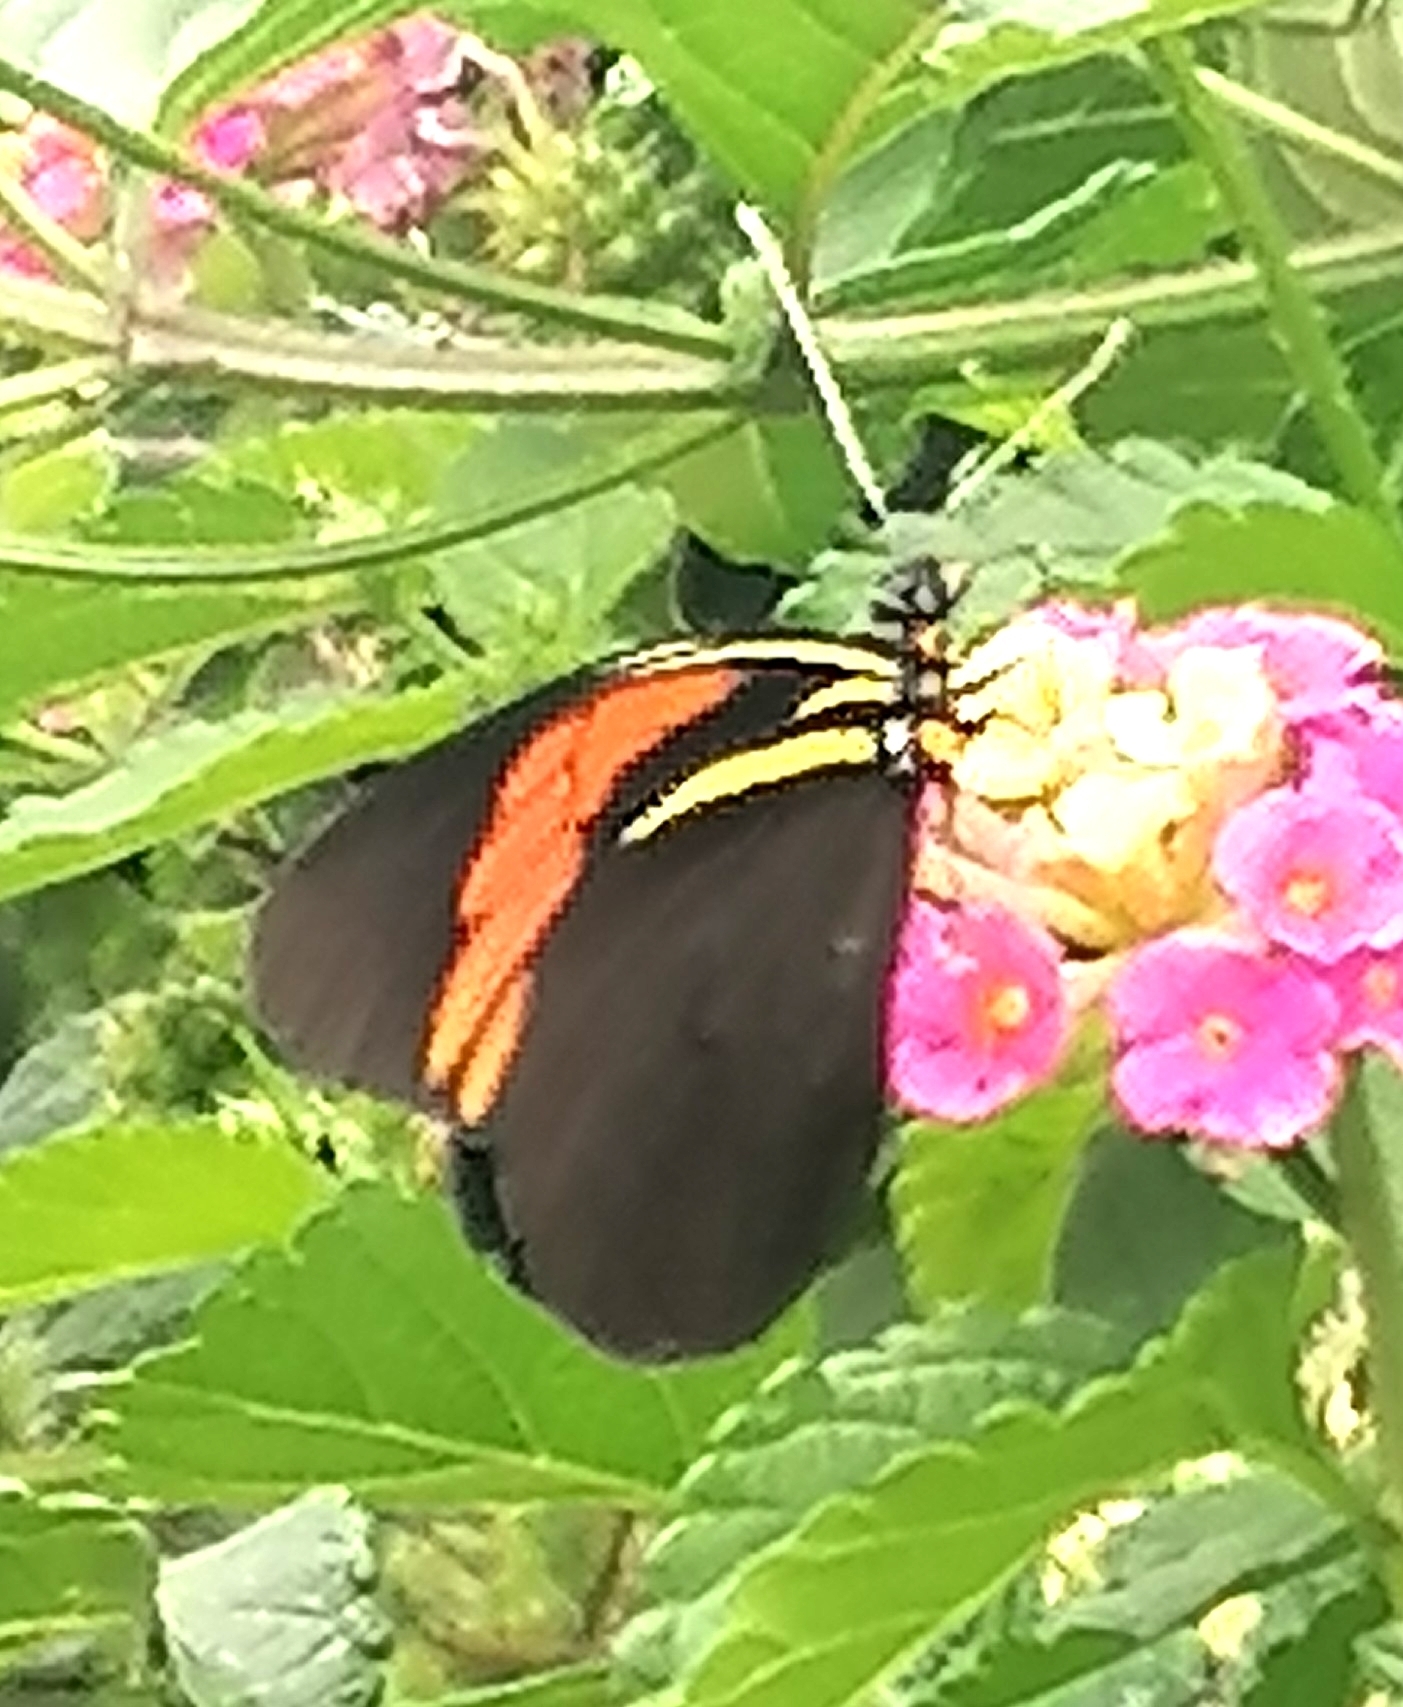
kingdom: Animalia
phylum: Arthropoda
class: Insecta
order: Lepidoptera
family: Pieridae
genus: Pereute
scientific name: Pereute charops
